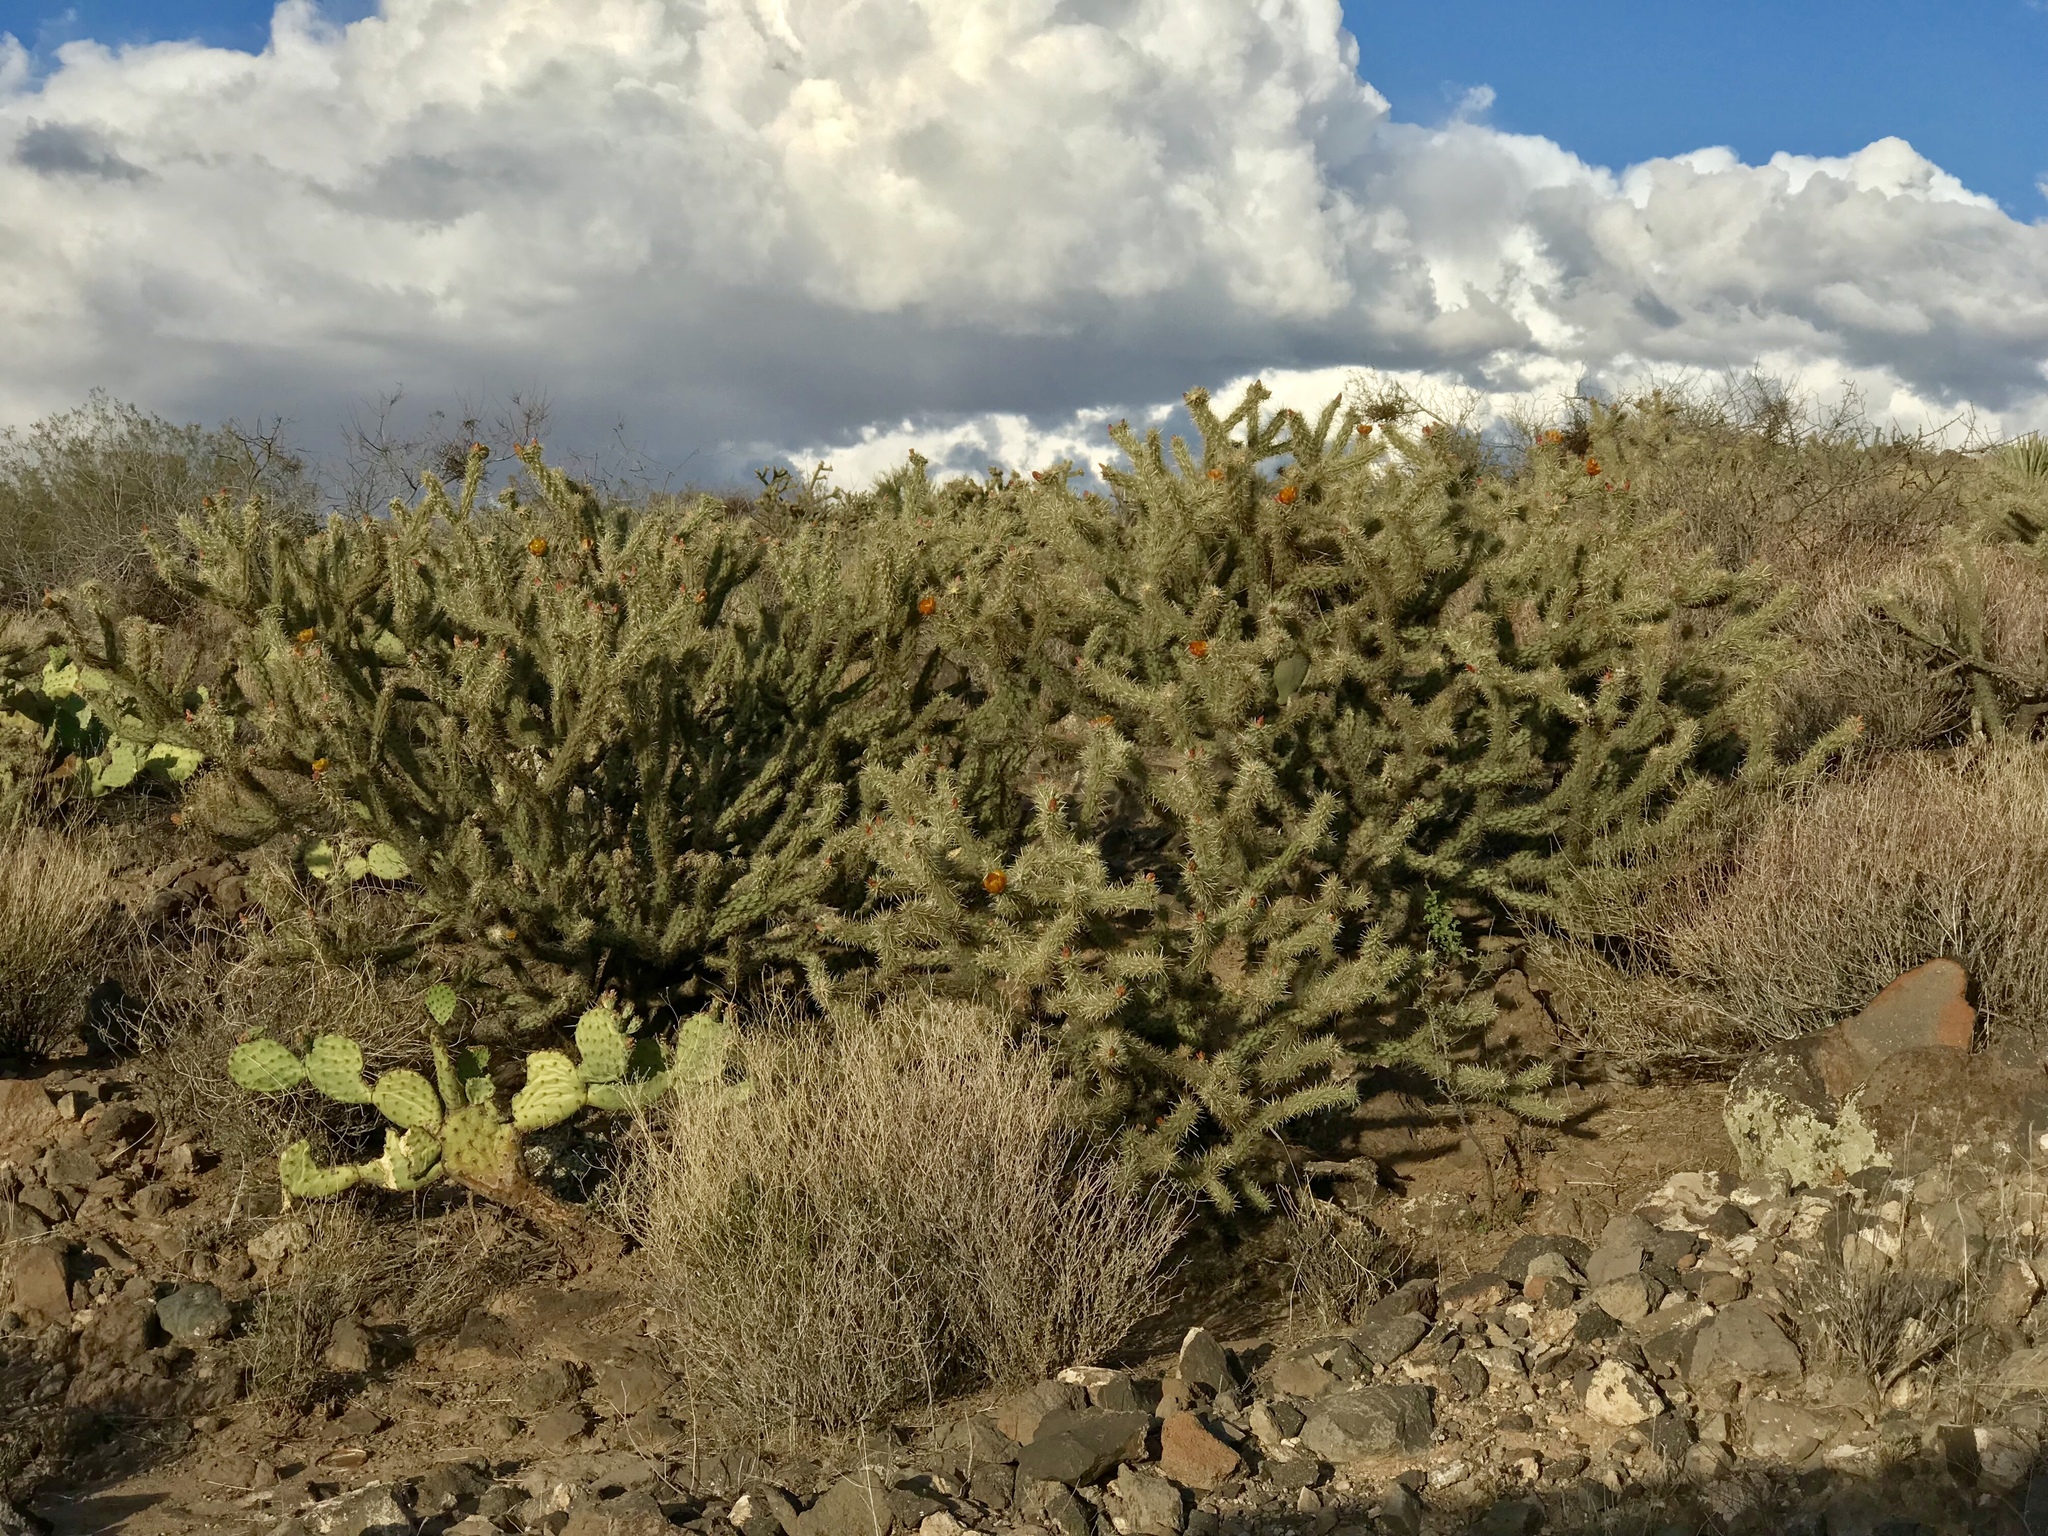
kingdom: Plantae
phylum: Tracheophyta
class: Magnoliopsida
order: Caryophyllales
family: Cactaceae
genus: Cylindropuntia
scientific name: Cylindropuntia acanthocarpa
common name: Buckhorn cholla
